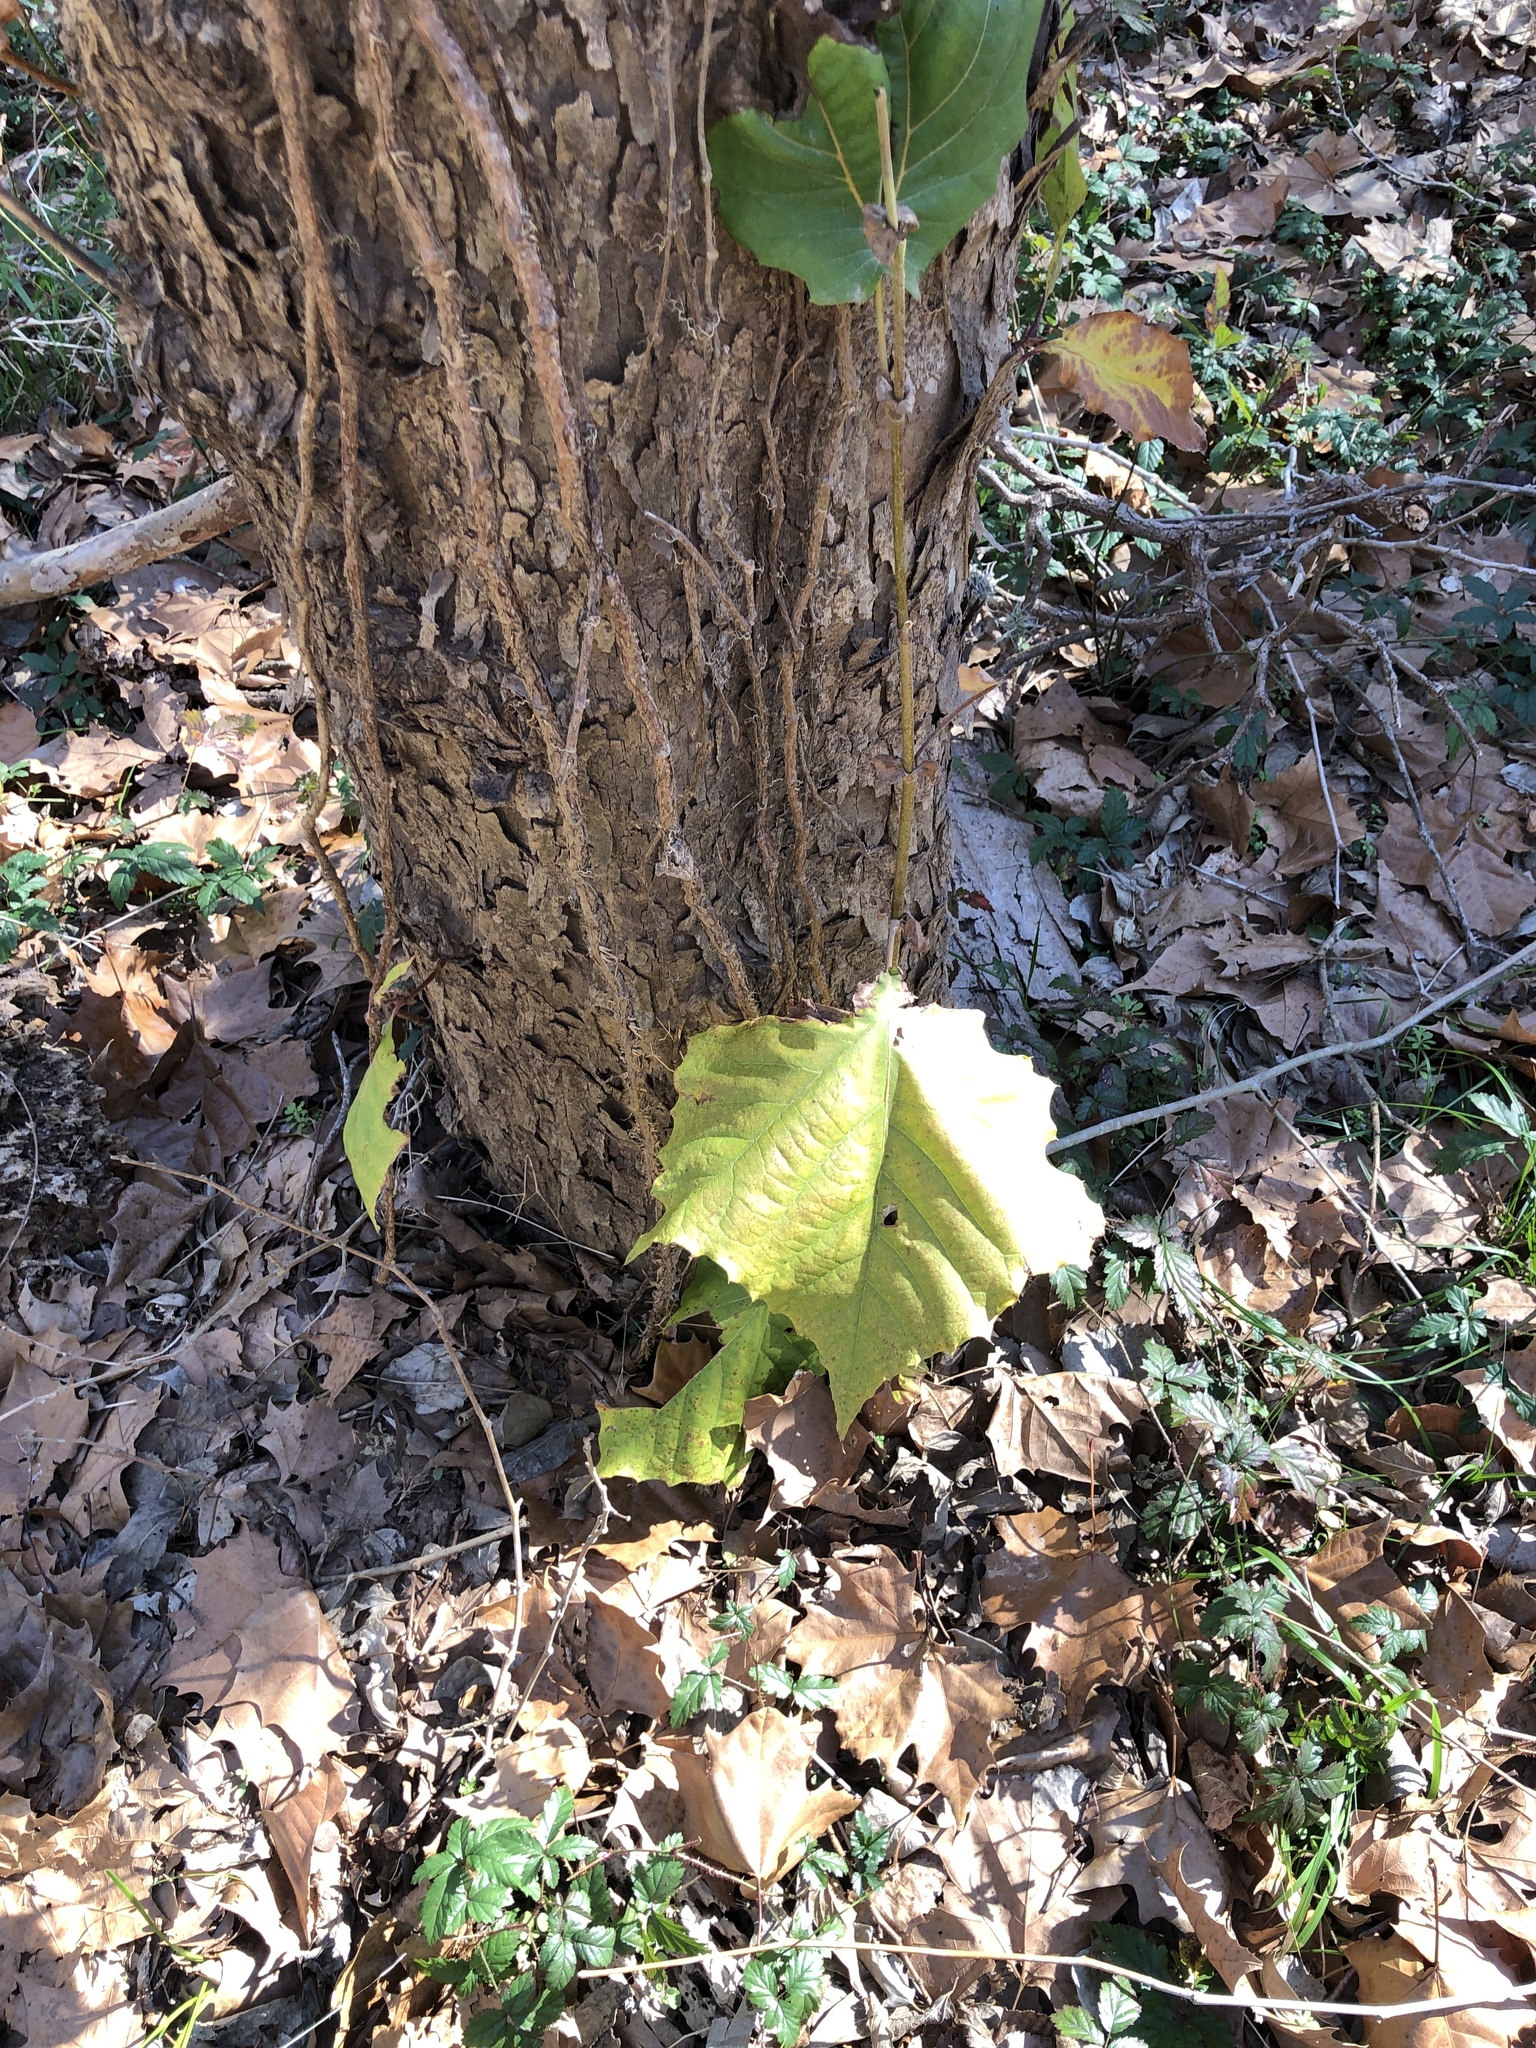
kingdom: Plantae
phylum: Tracheophyta
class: Magnoliopsida
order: Proteales
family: Platanaceae
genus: Platanus
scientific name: Platanus occidentalis
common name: American sycamore
